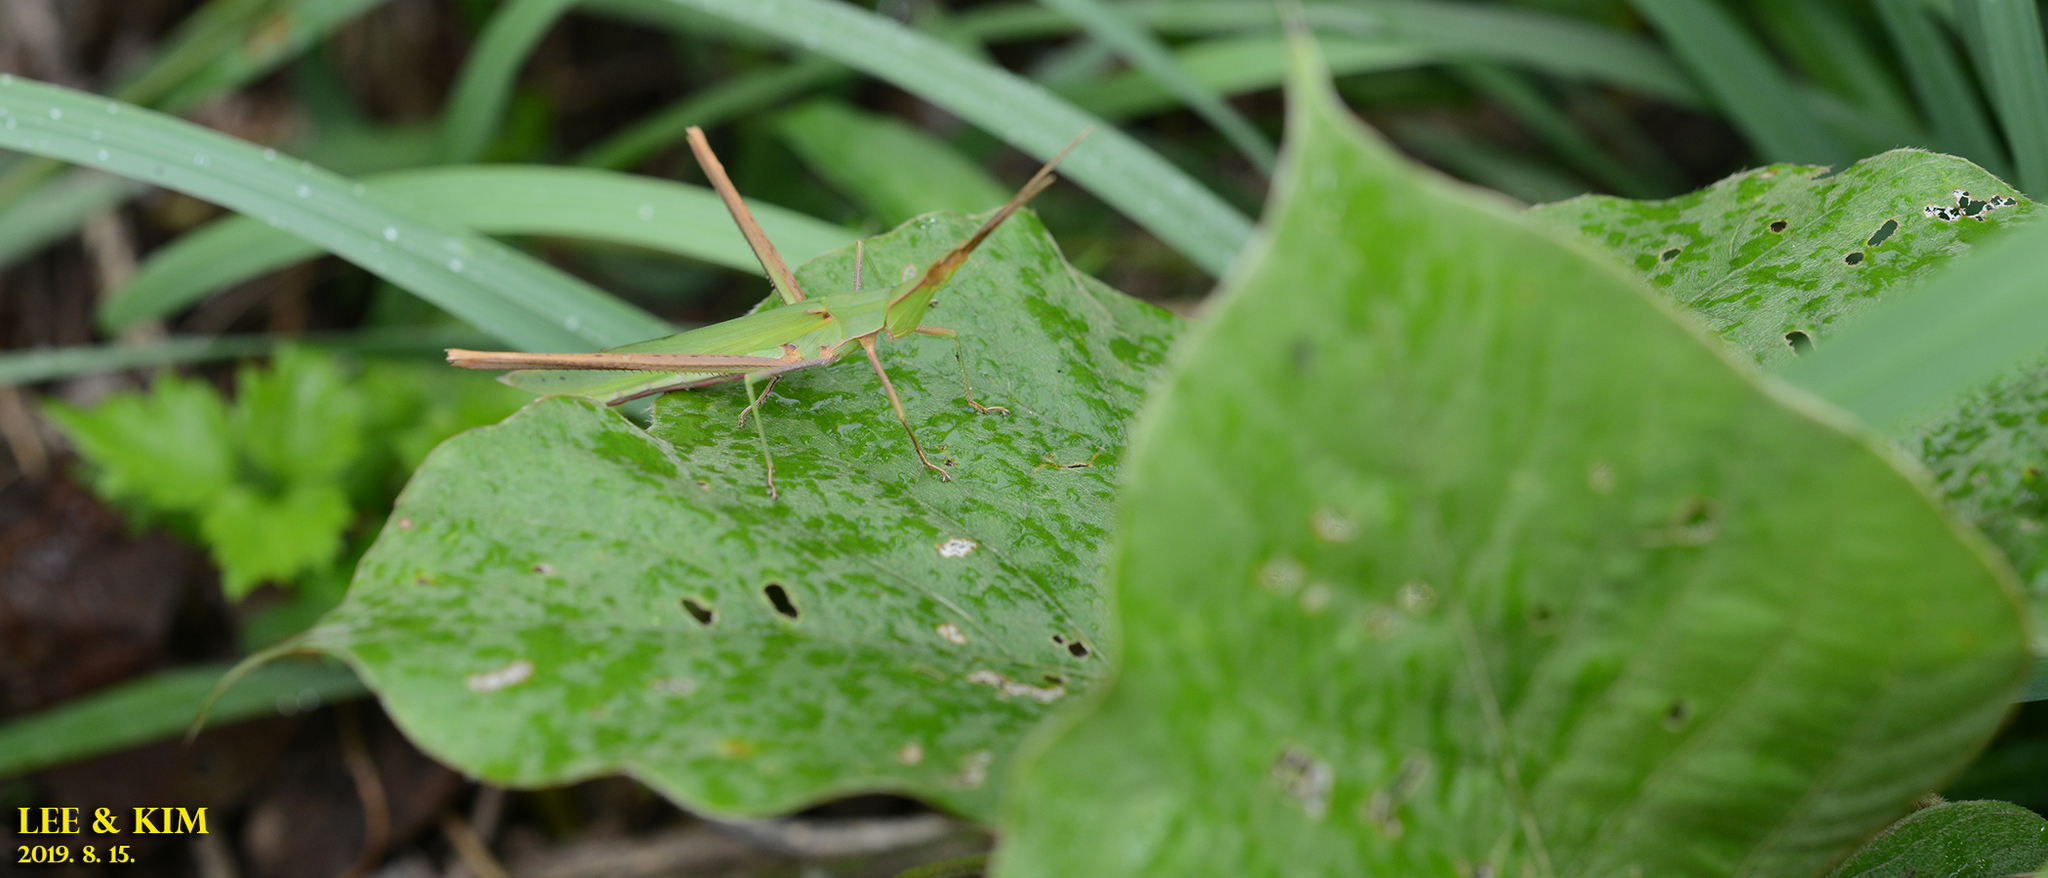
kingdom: Animalia
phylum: Arthropoda
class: Insecta
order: Orthoptera
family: Acrididae
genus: Acrida
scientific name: Acrida cinerea
